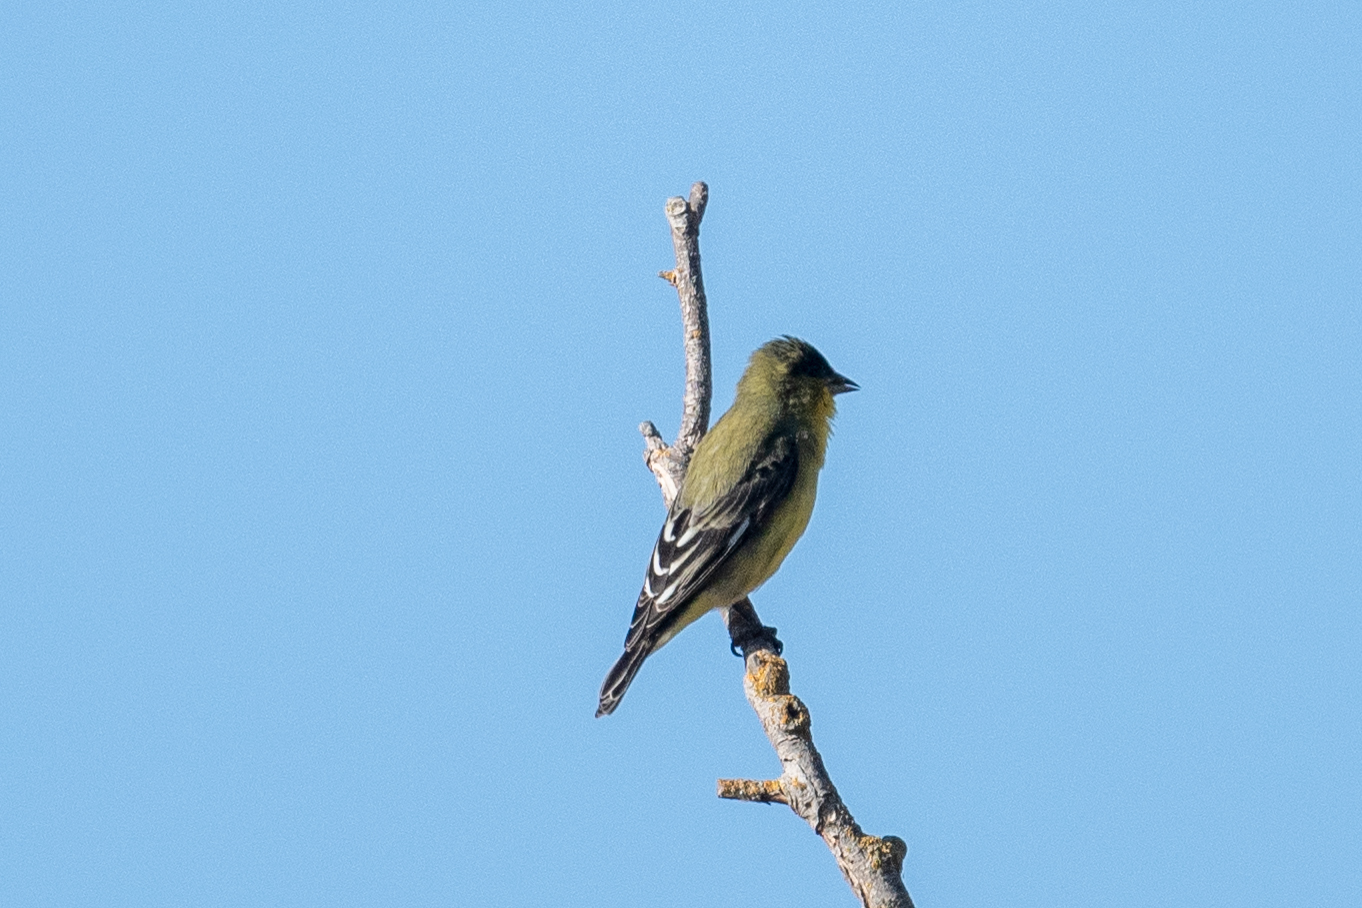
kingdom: Animalia
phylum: Chordata
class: Aves
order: Passeriformes
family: Fringillidae
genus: Spinus
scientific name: Spinus psaltria
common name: Lesser goldfinch
